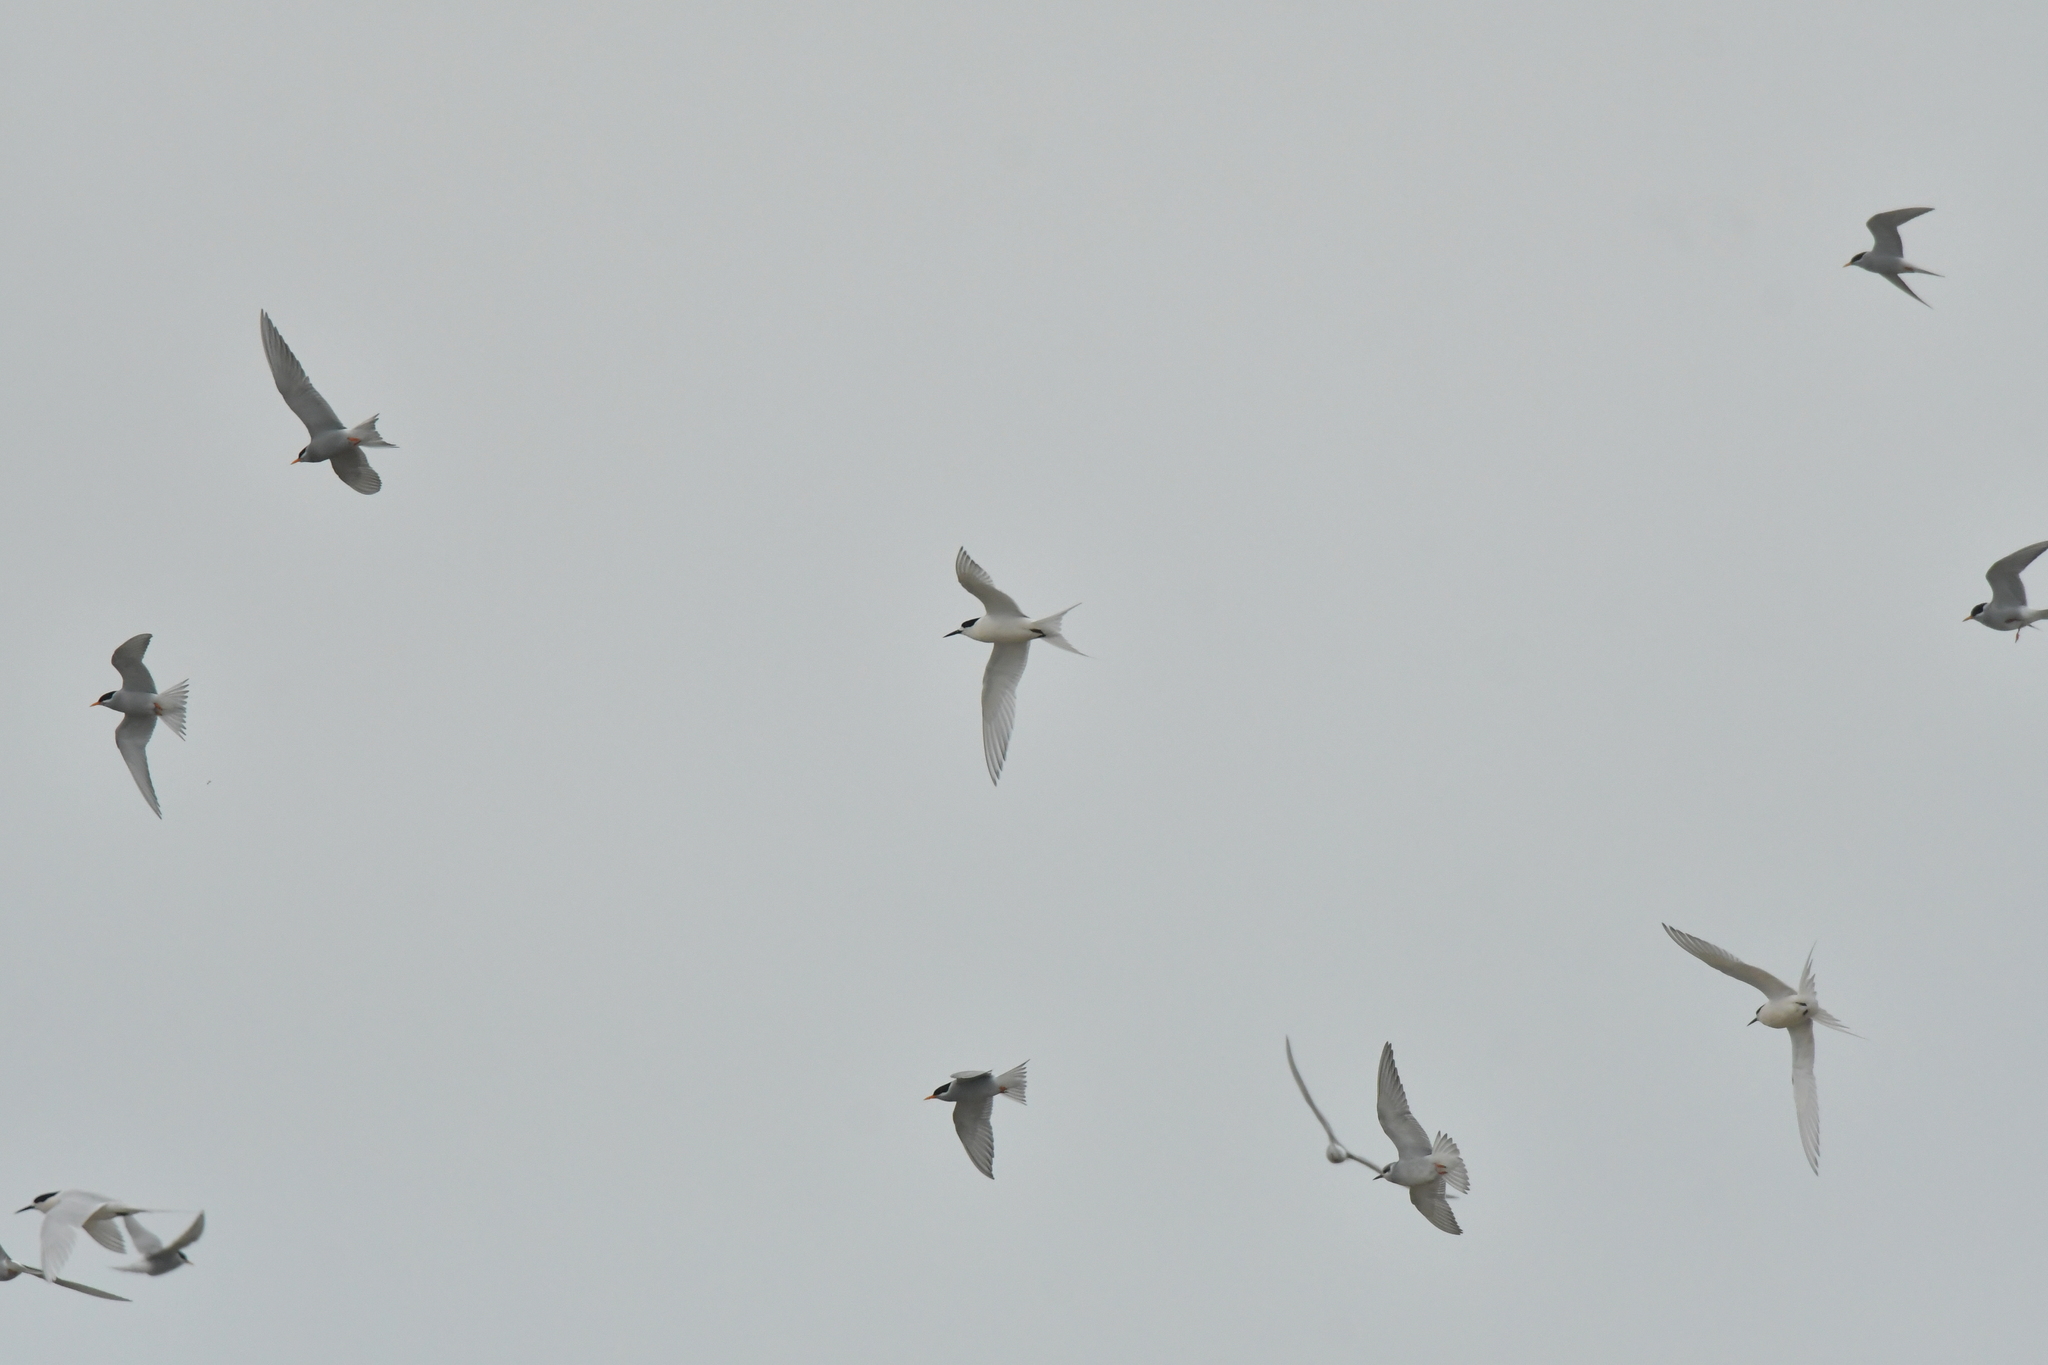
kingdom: Animalia
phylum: Chordata
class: Aves
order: Charadriiformes
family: Laridae
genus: Sterna
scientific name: Sterna striata
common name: White-fronted tern
